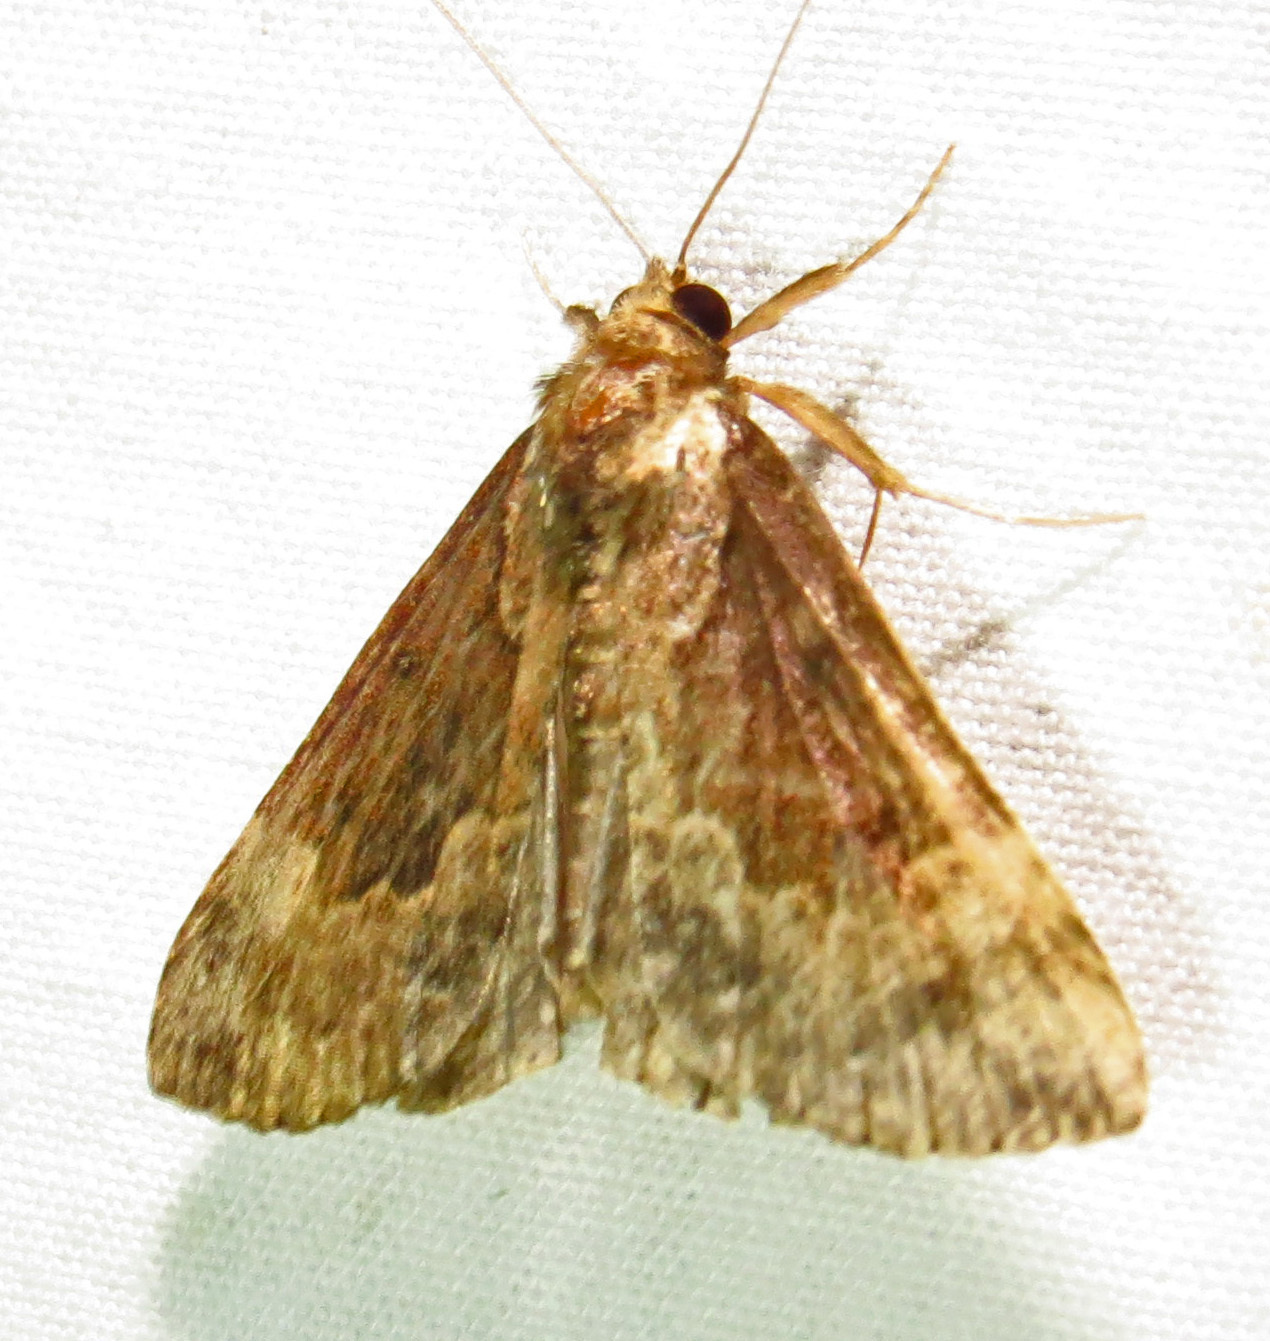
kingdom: Animalia
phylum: Arthropoda
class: Insecta
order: Lepidoptera
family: Erebidae
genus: Hypena
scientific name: Hypena baltimoralis
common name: Baltimore snout
